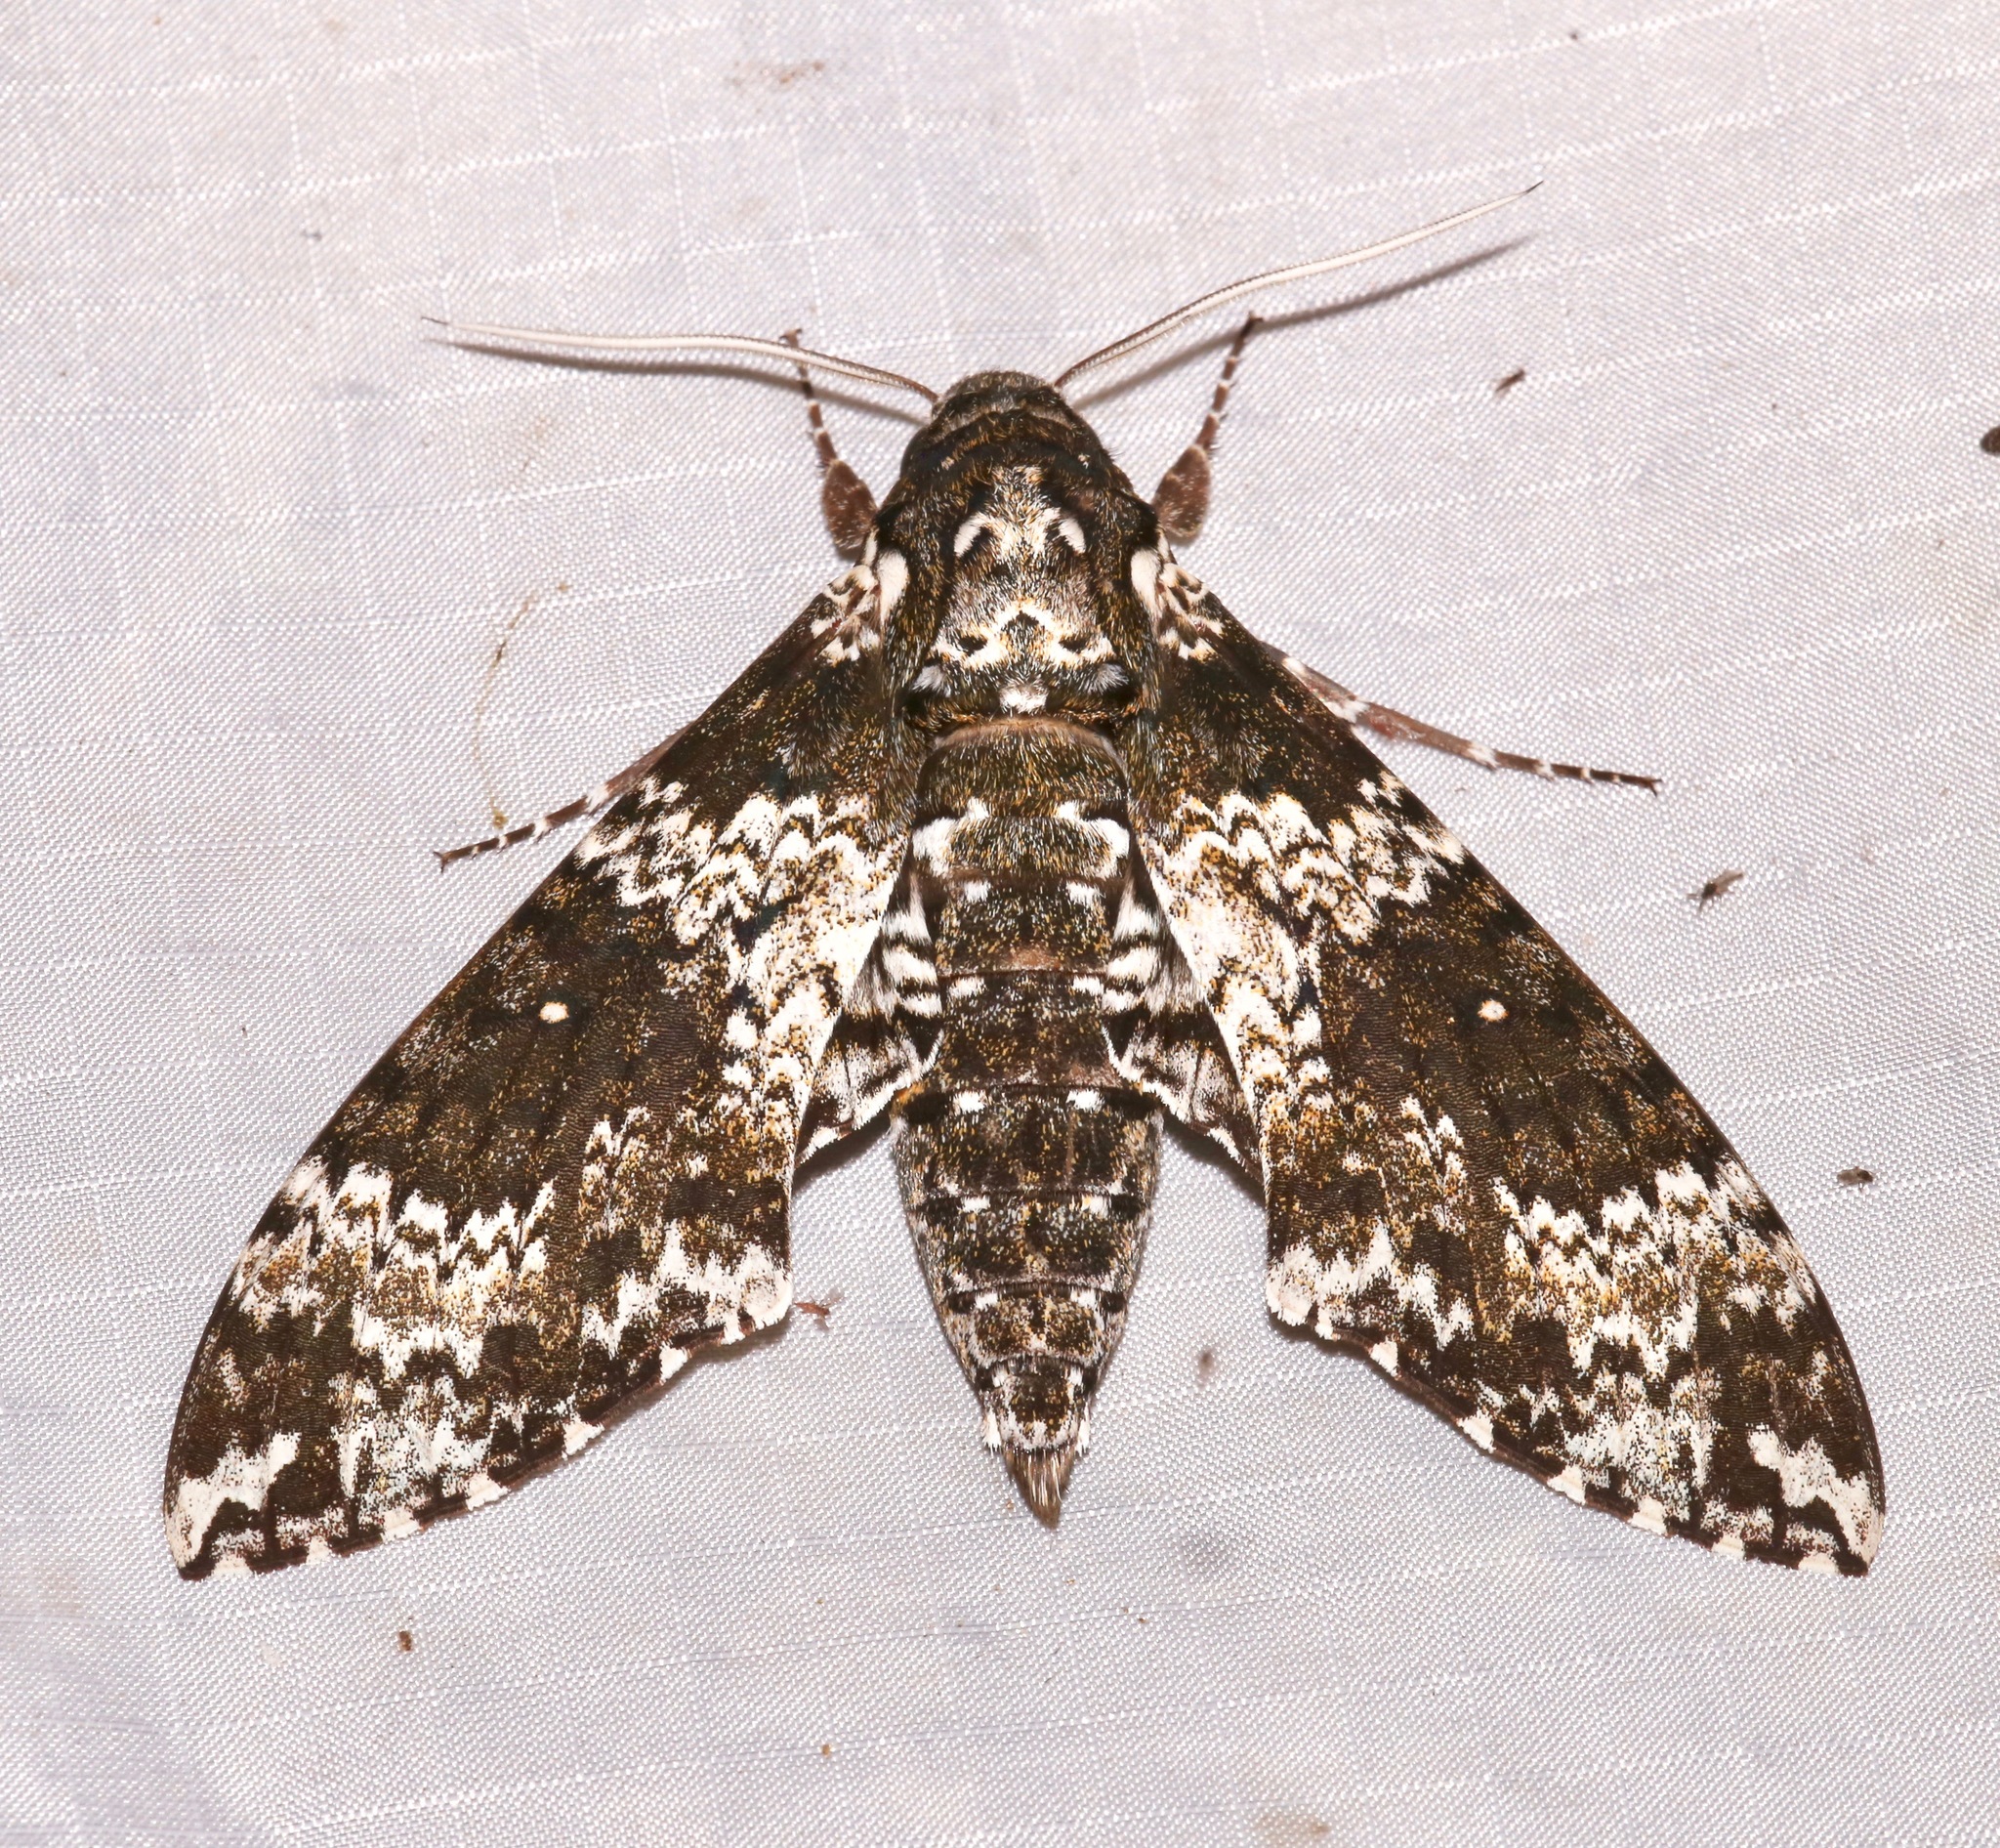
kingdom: Animalia
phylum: Arthropoda
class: Insecta
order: Lepidoptera
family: Sphingidae
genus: Manduca
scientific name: Manduca rustica
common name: Rustic sphinx
